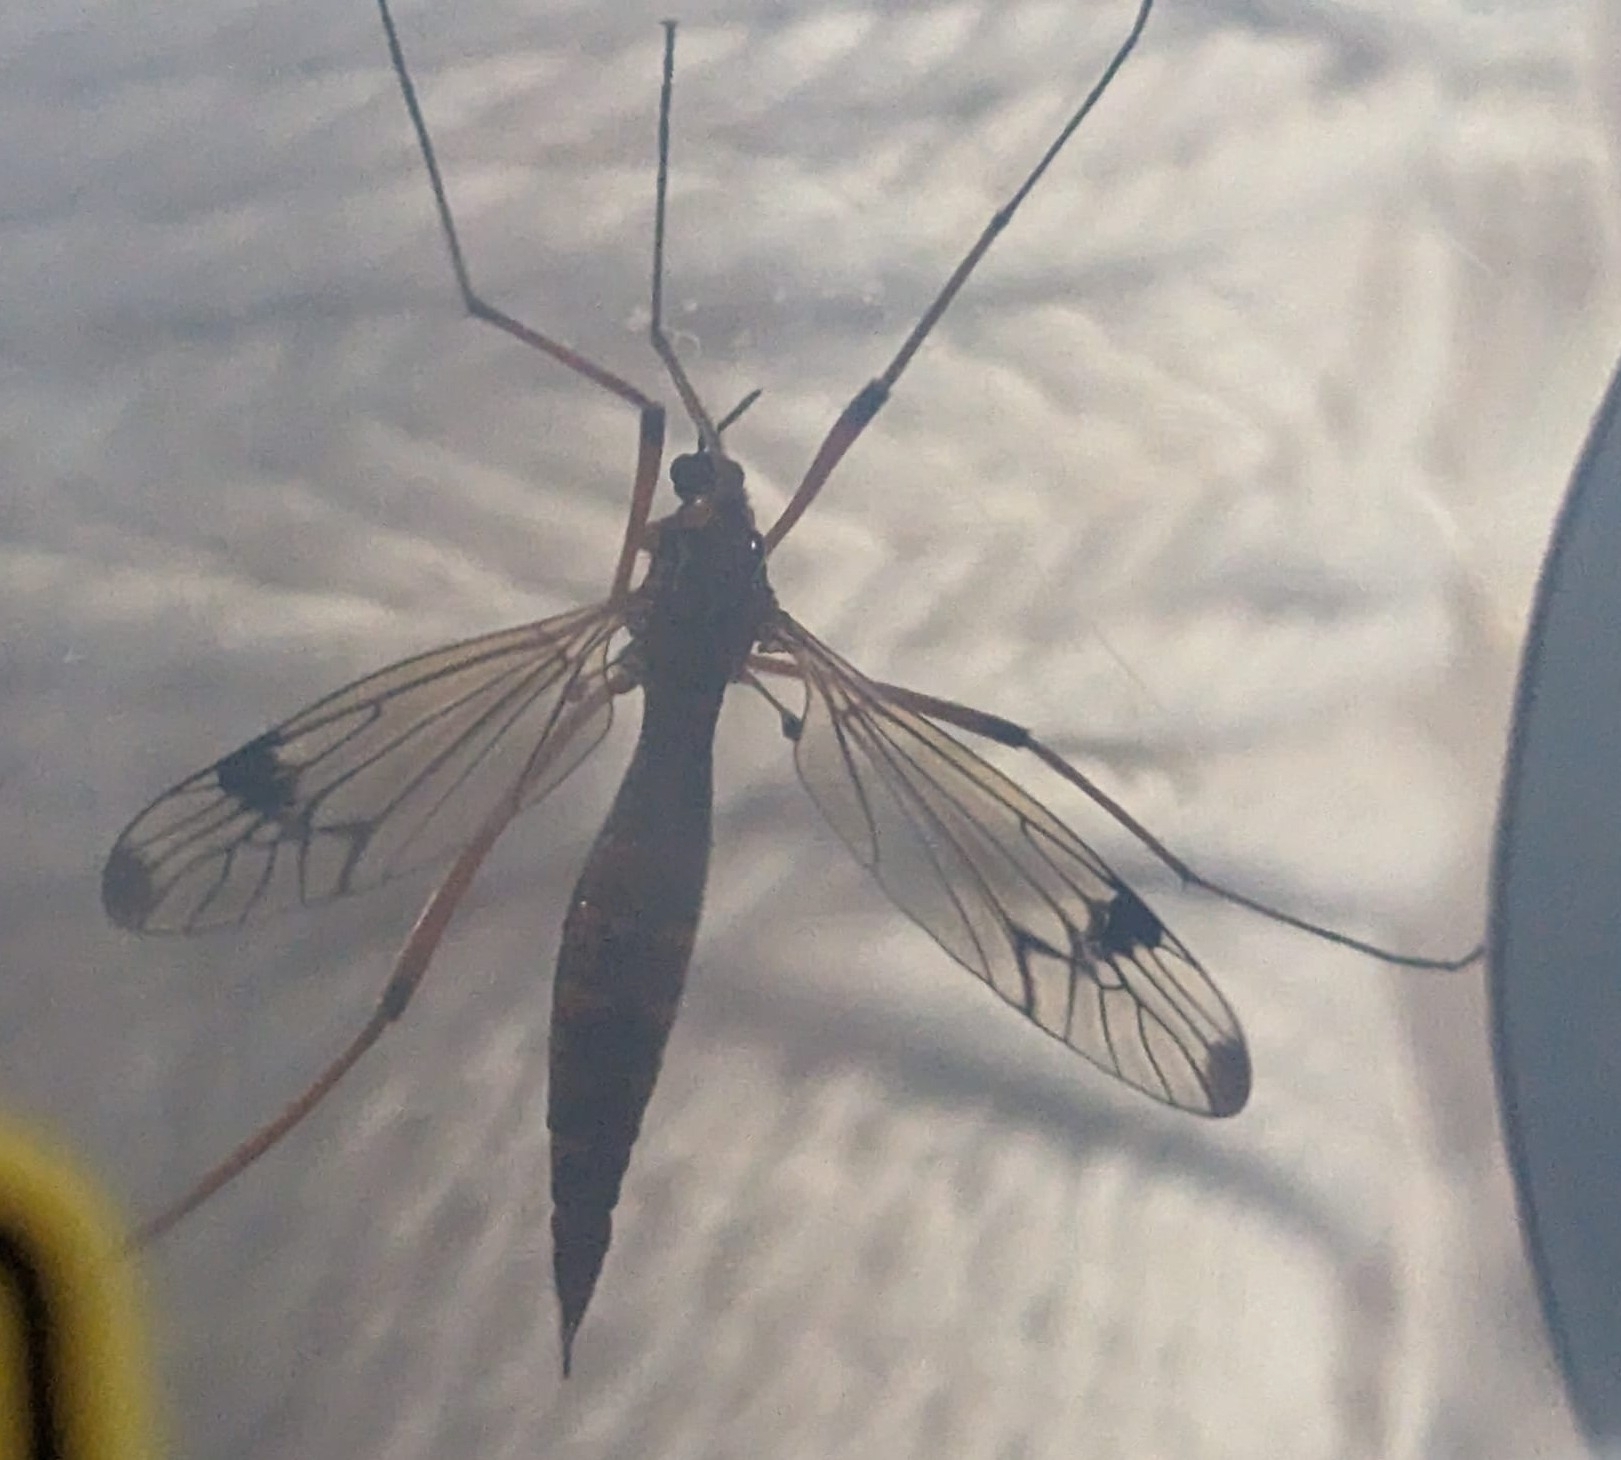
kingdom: Animalia
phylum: Arthropoda
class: Insecta
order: Diptera
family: Tipulidae
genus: Dictenidia
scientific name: Dictenidia bimaculata
